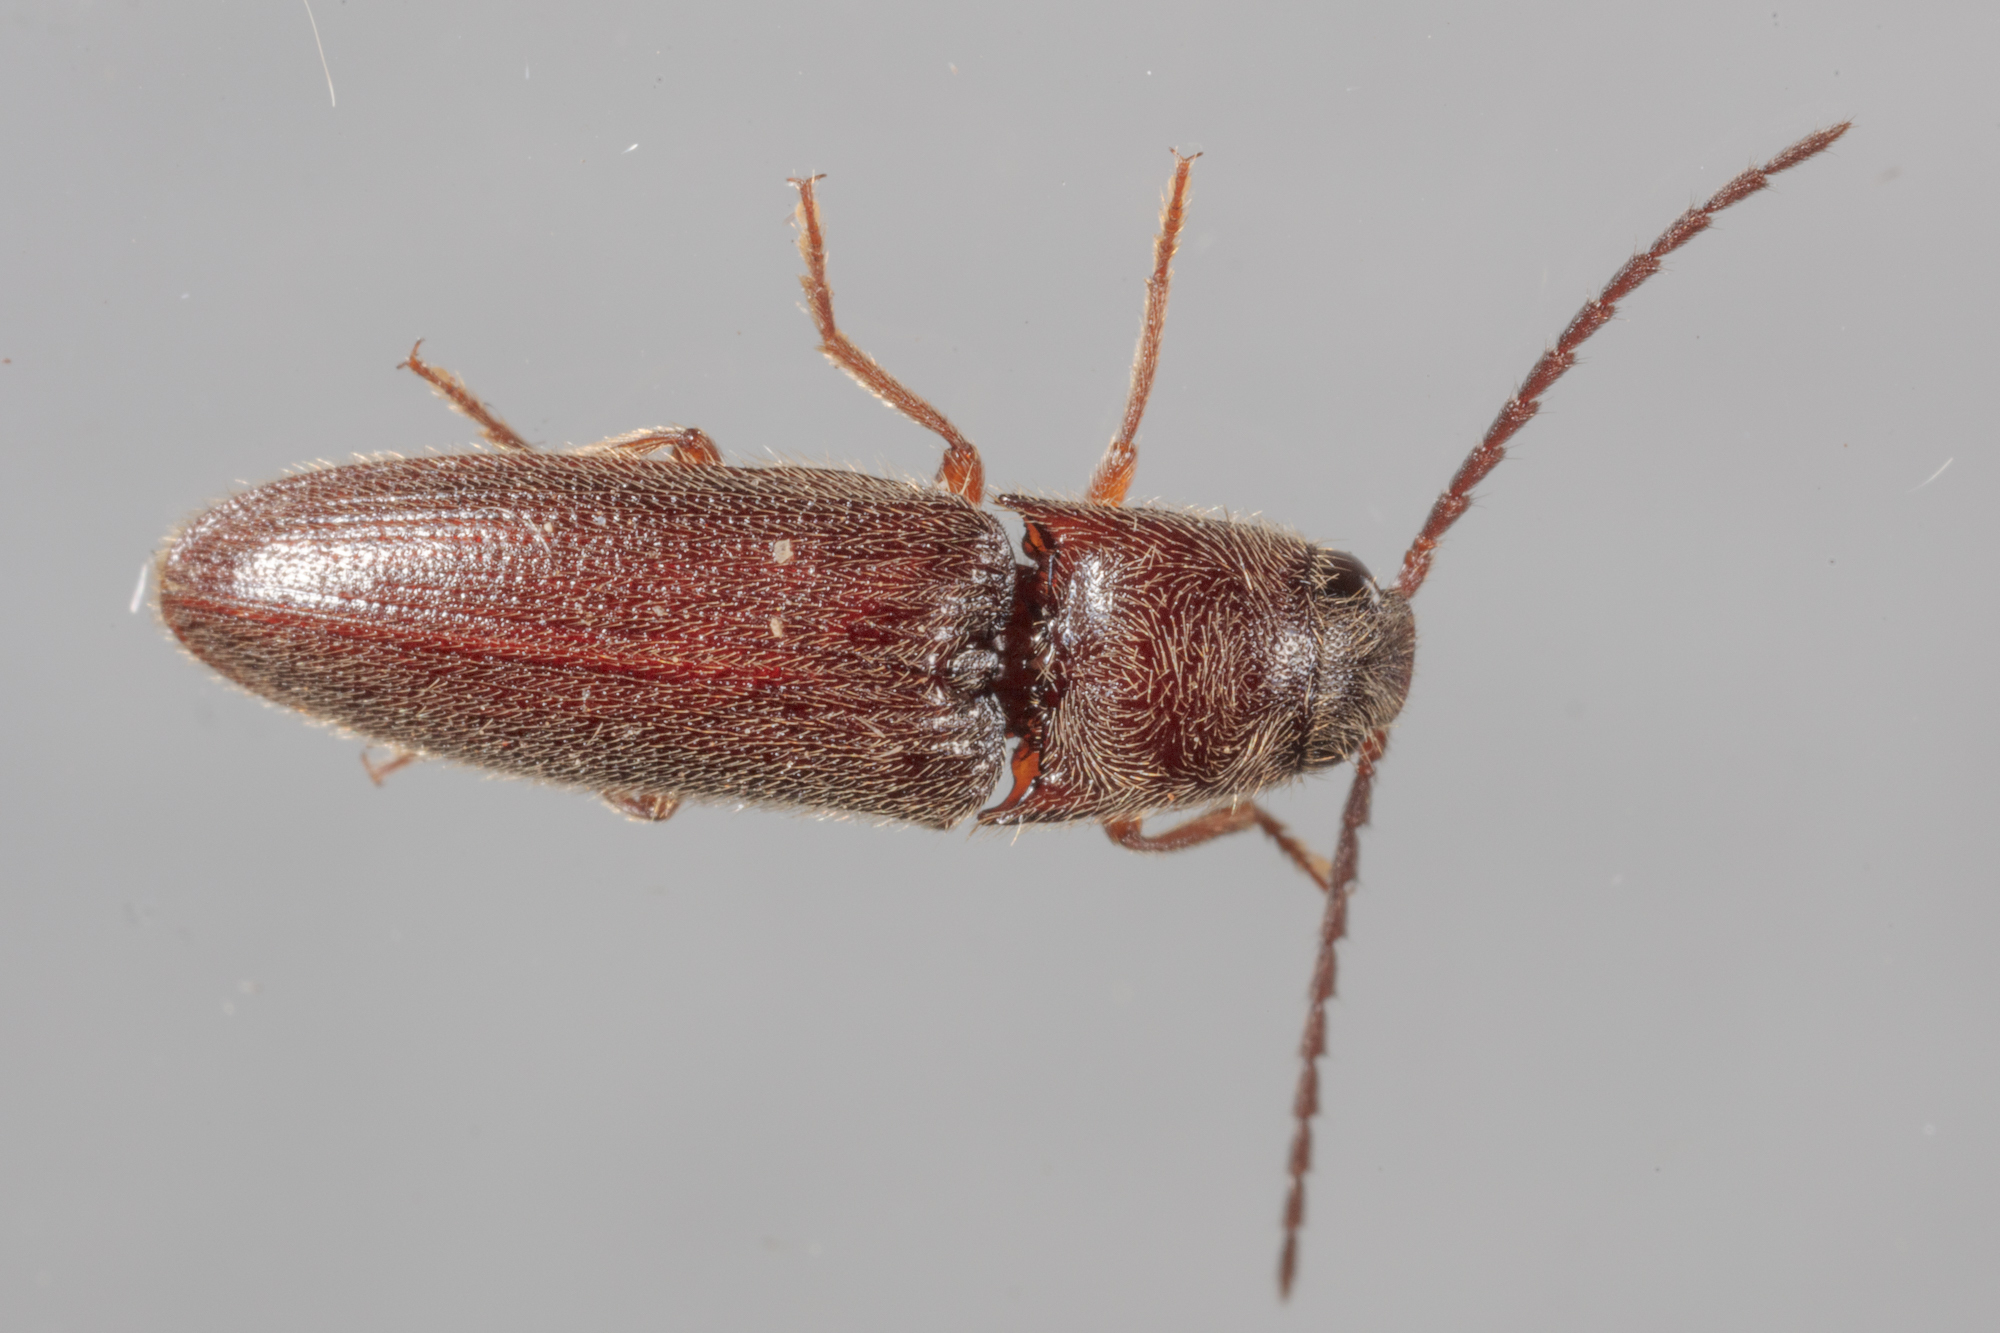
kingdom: Animalia
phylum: Arthropoda
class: Insecta
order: Coleoptera
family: Elateridae
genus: Dipropus
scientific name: Dipropus
